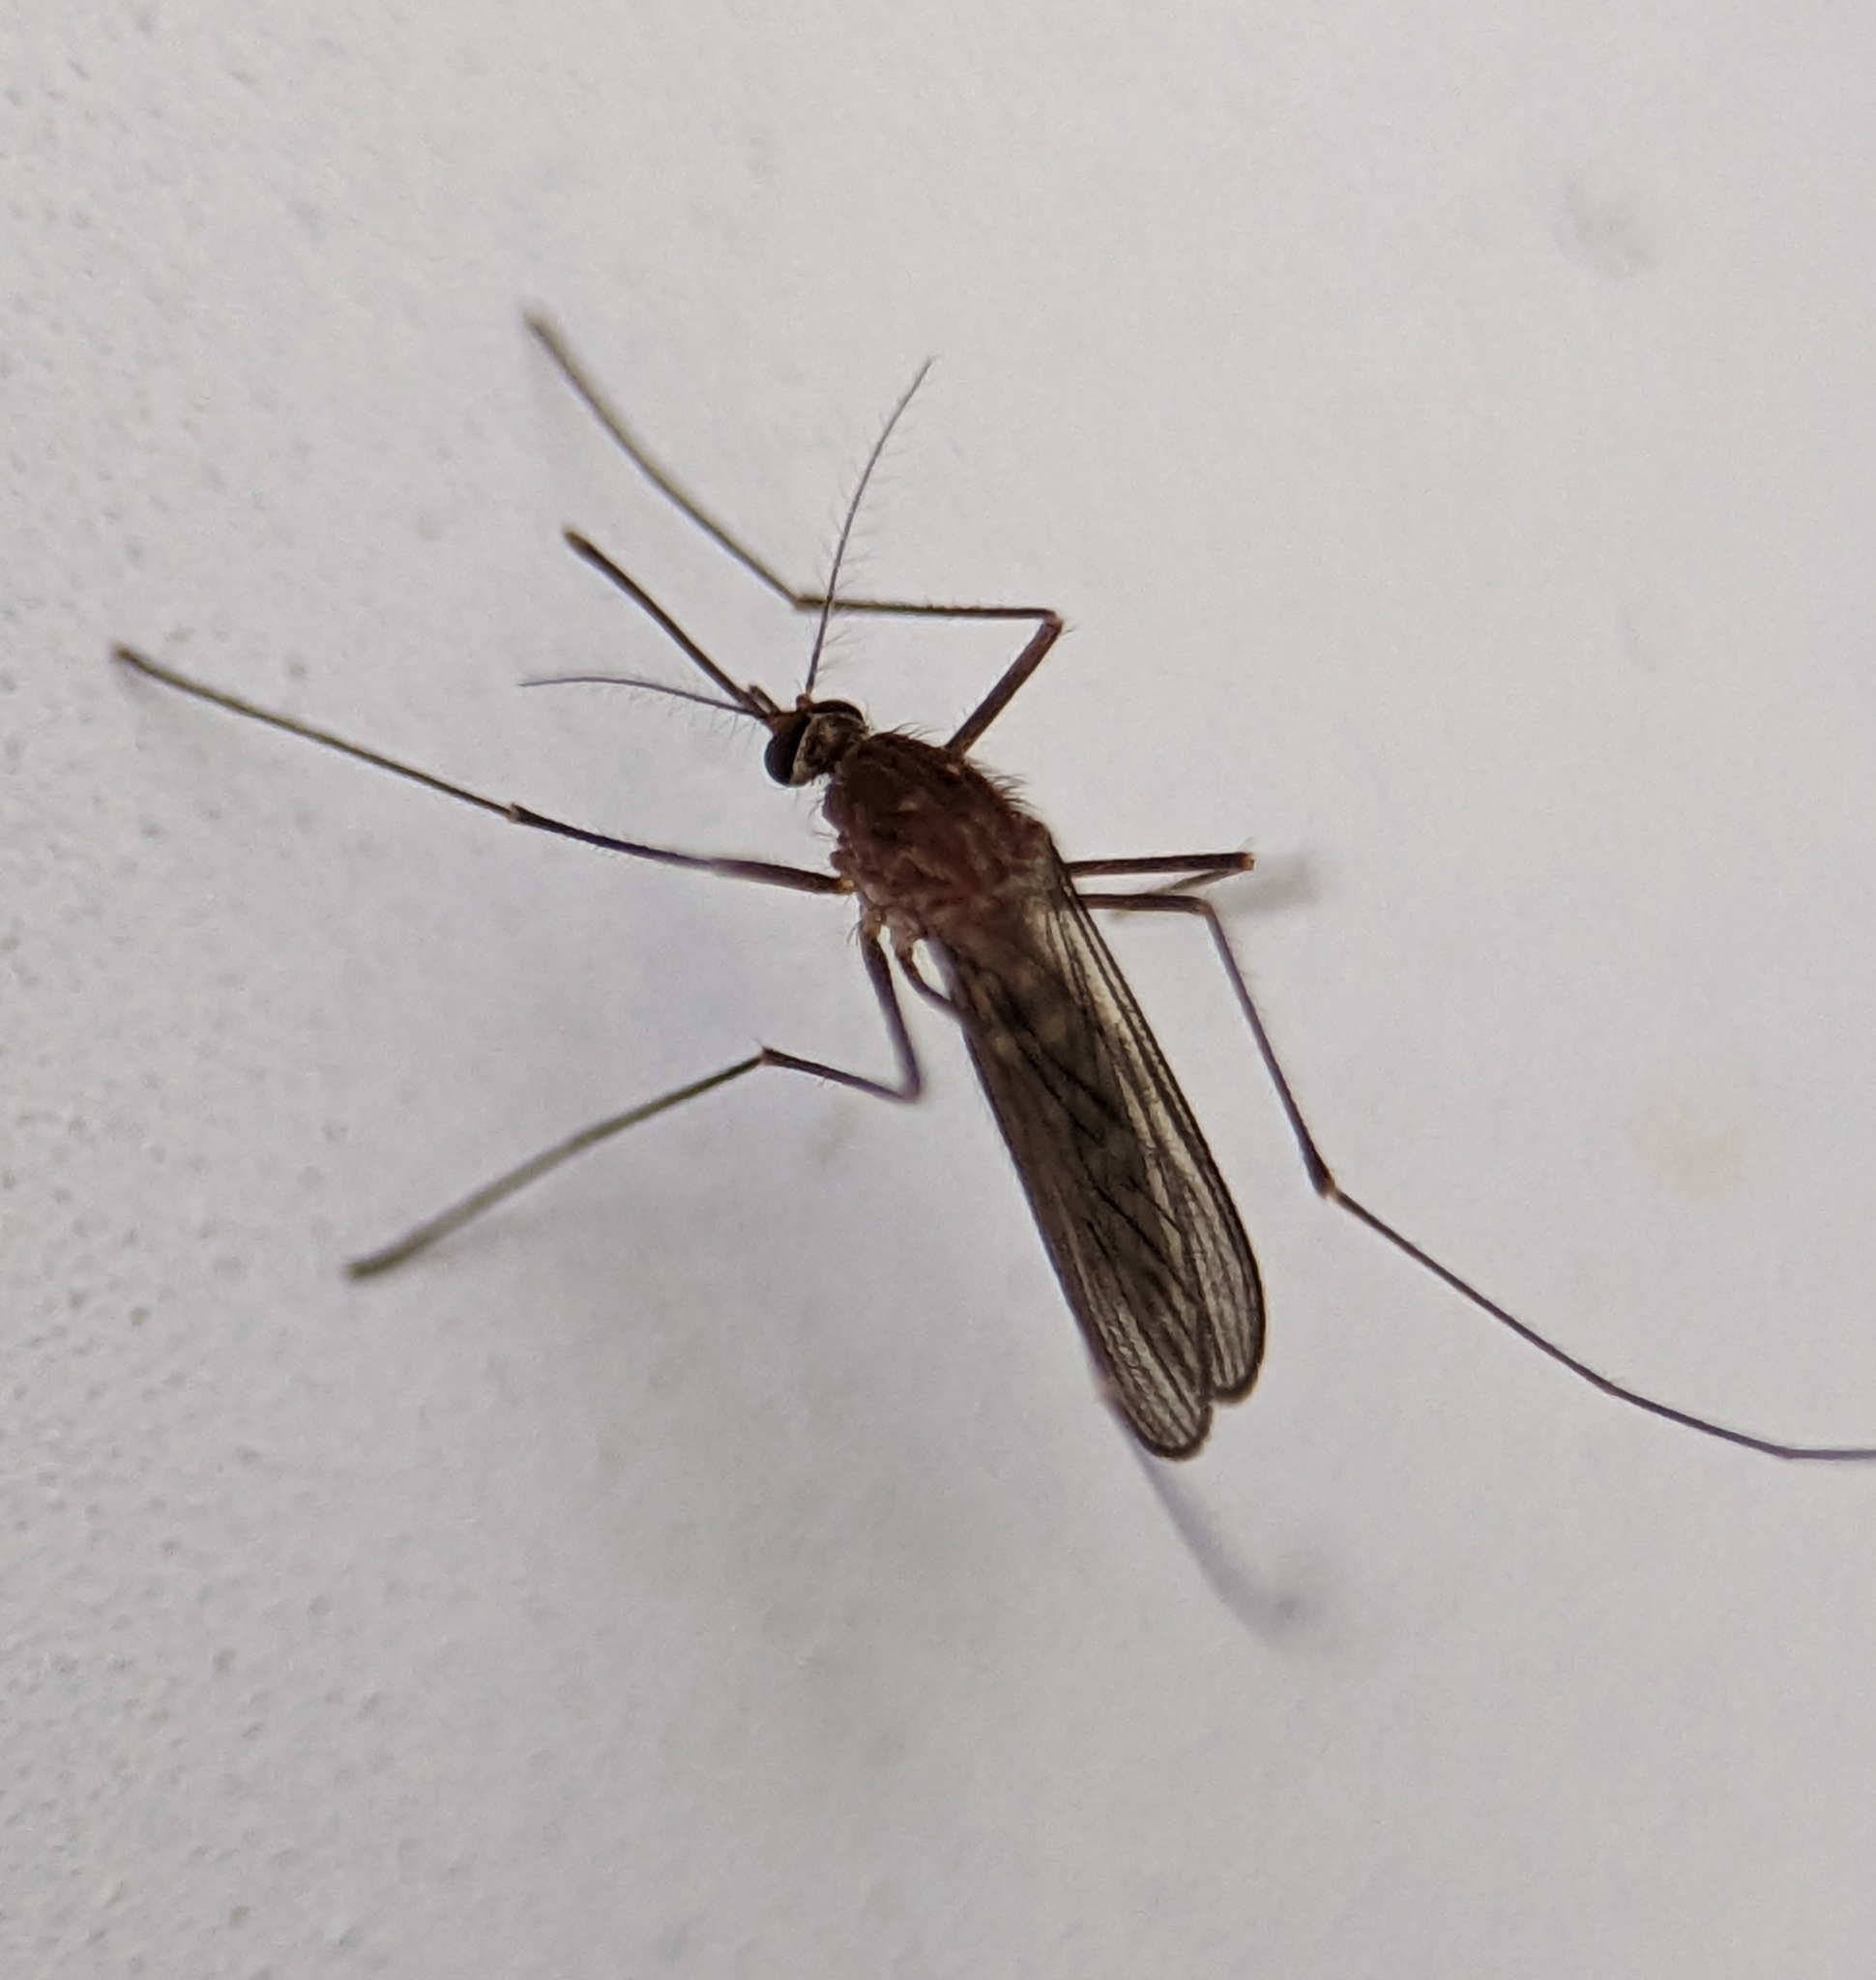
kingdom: Animalia
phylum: Arthropoda
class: Insecta
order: Diptera
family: Culicidae
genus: Culex
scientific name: Culex restuans
